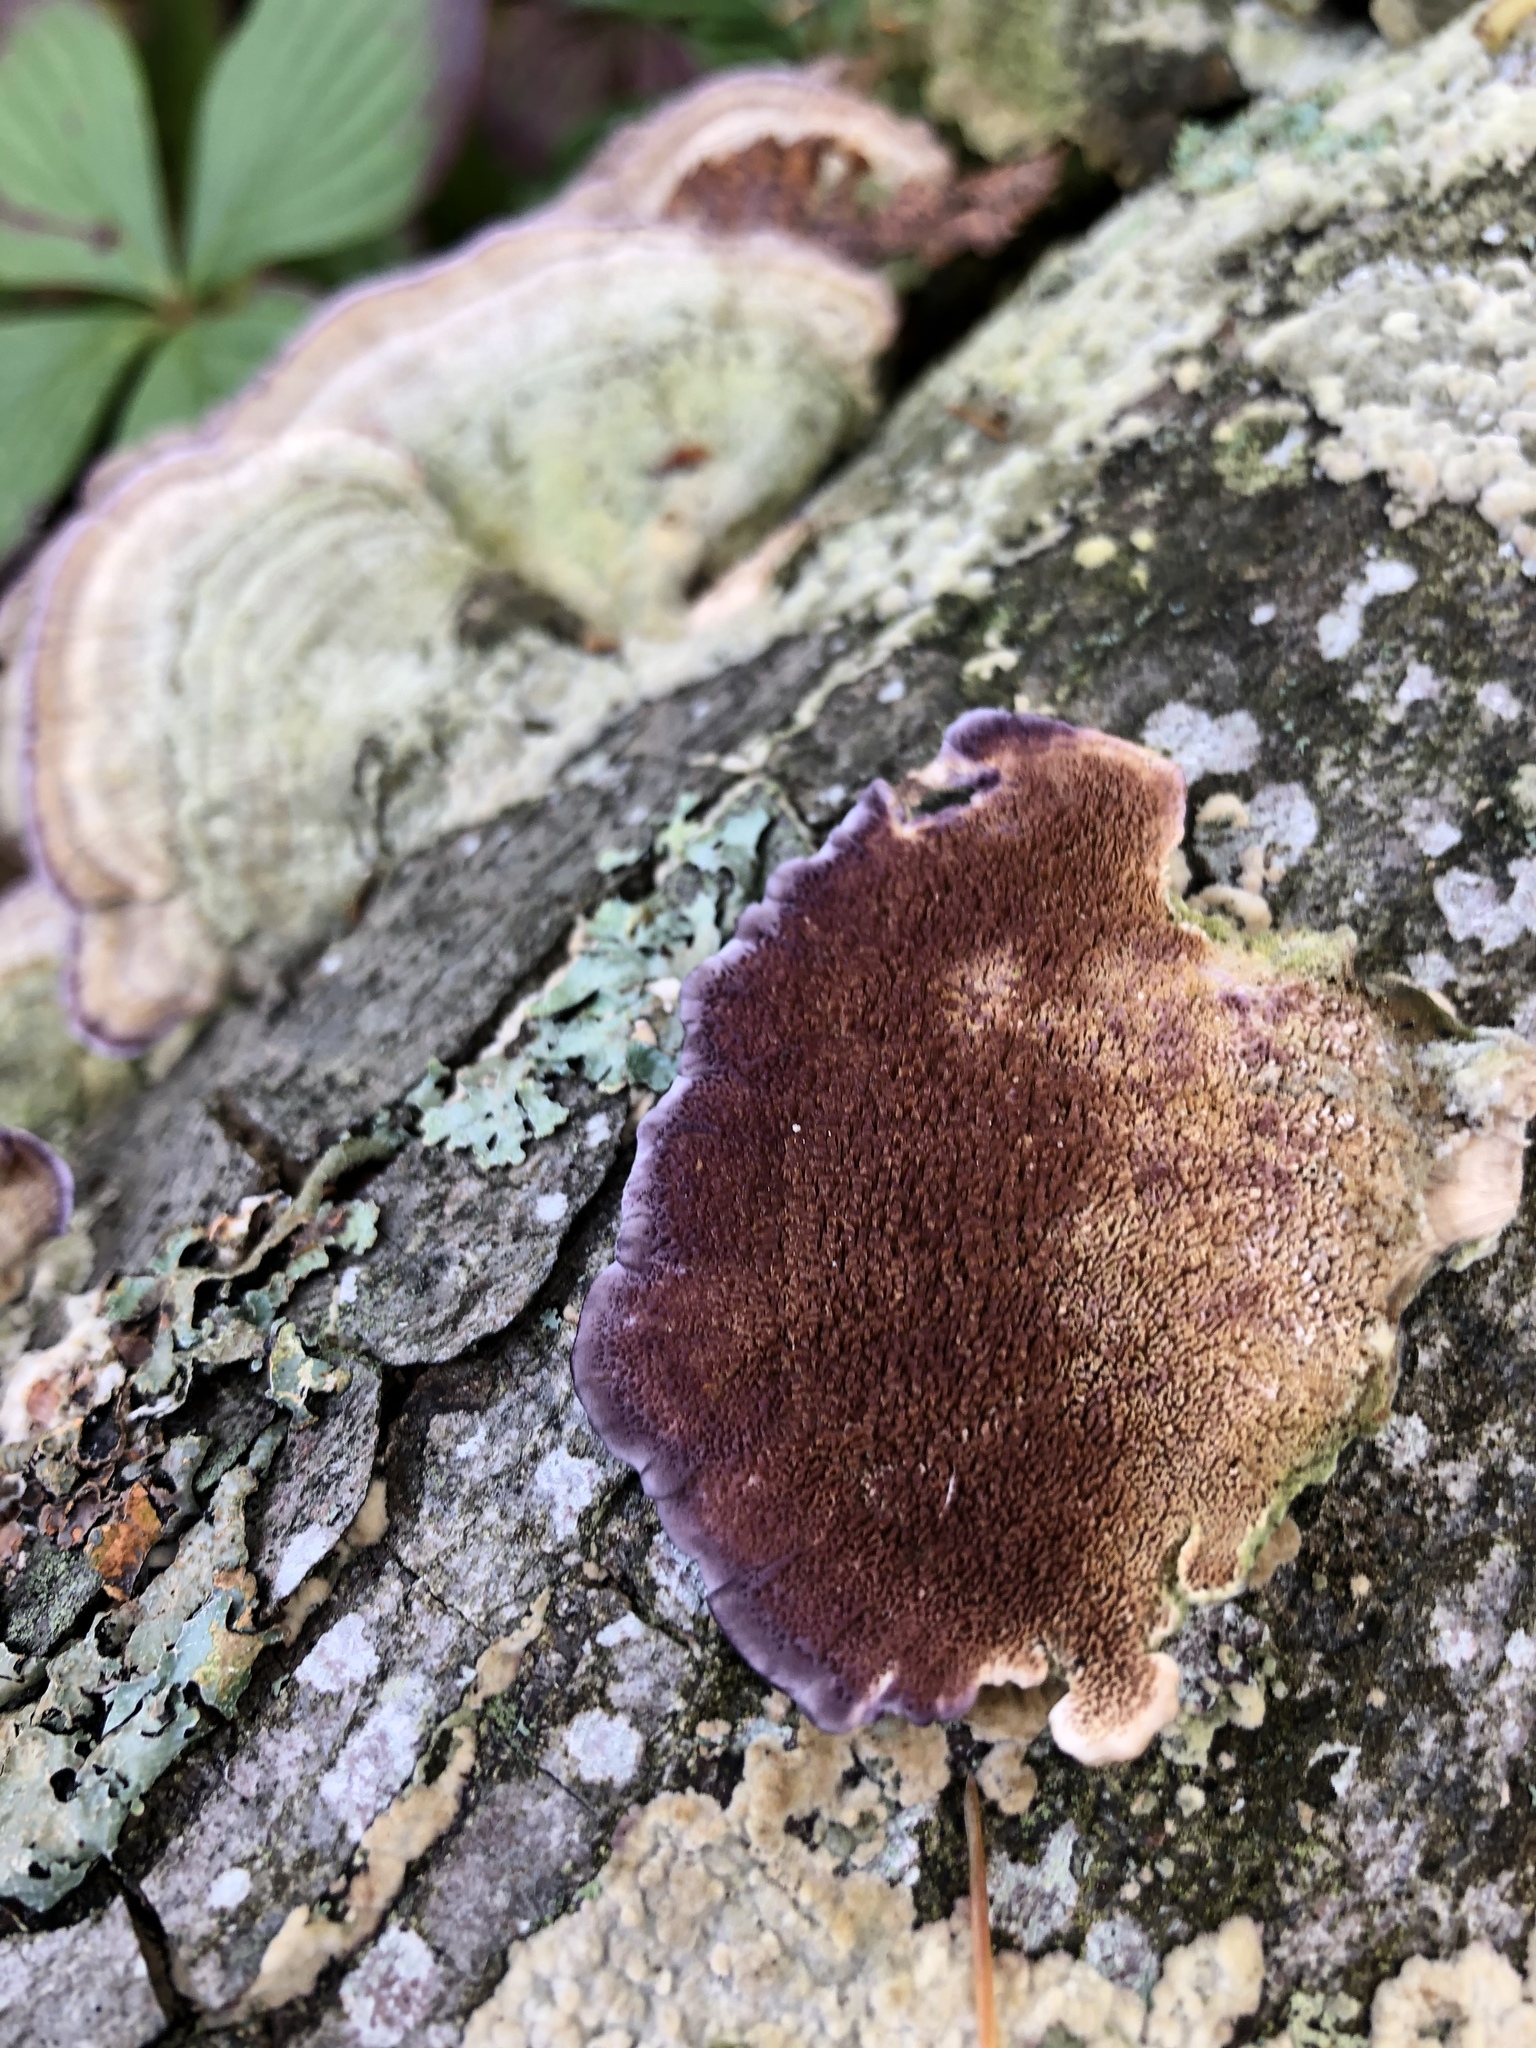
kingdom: Fungi
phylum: Basidiomycota
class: Agaricomycetes
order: Hymenochaetales
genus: Trichaptum
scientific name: Trichaptum biforme
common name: Violet-toothed polypore
